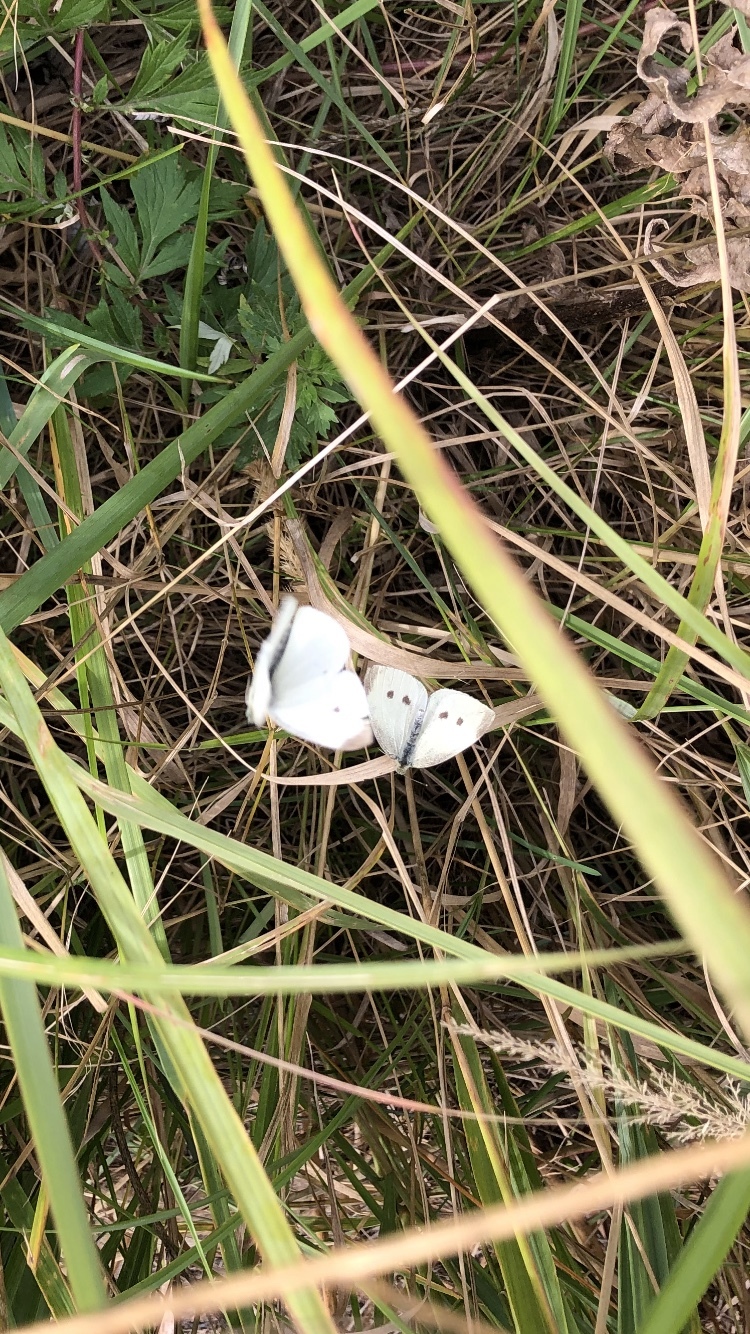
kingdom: Animalia
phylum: Arthropoda
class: Insecta
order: Lepidoptera
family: Pieridae
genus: Pieris
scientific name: Pieris rapae
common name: Small white
